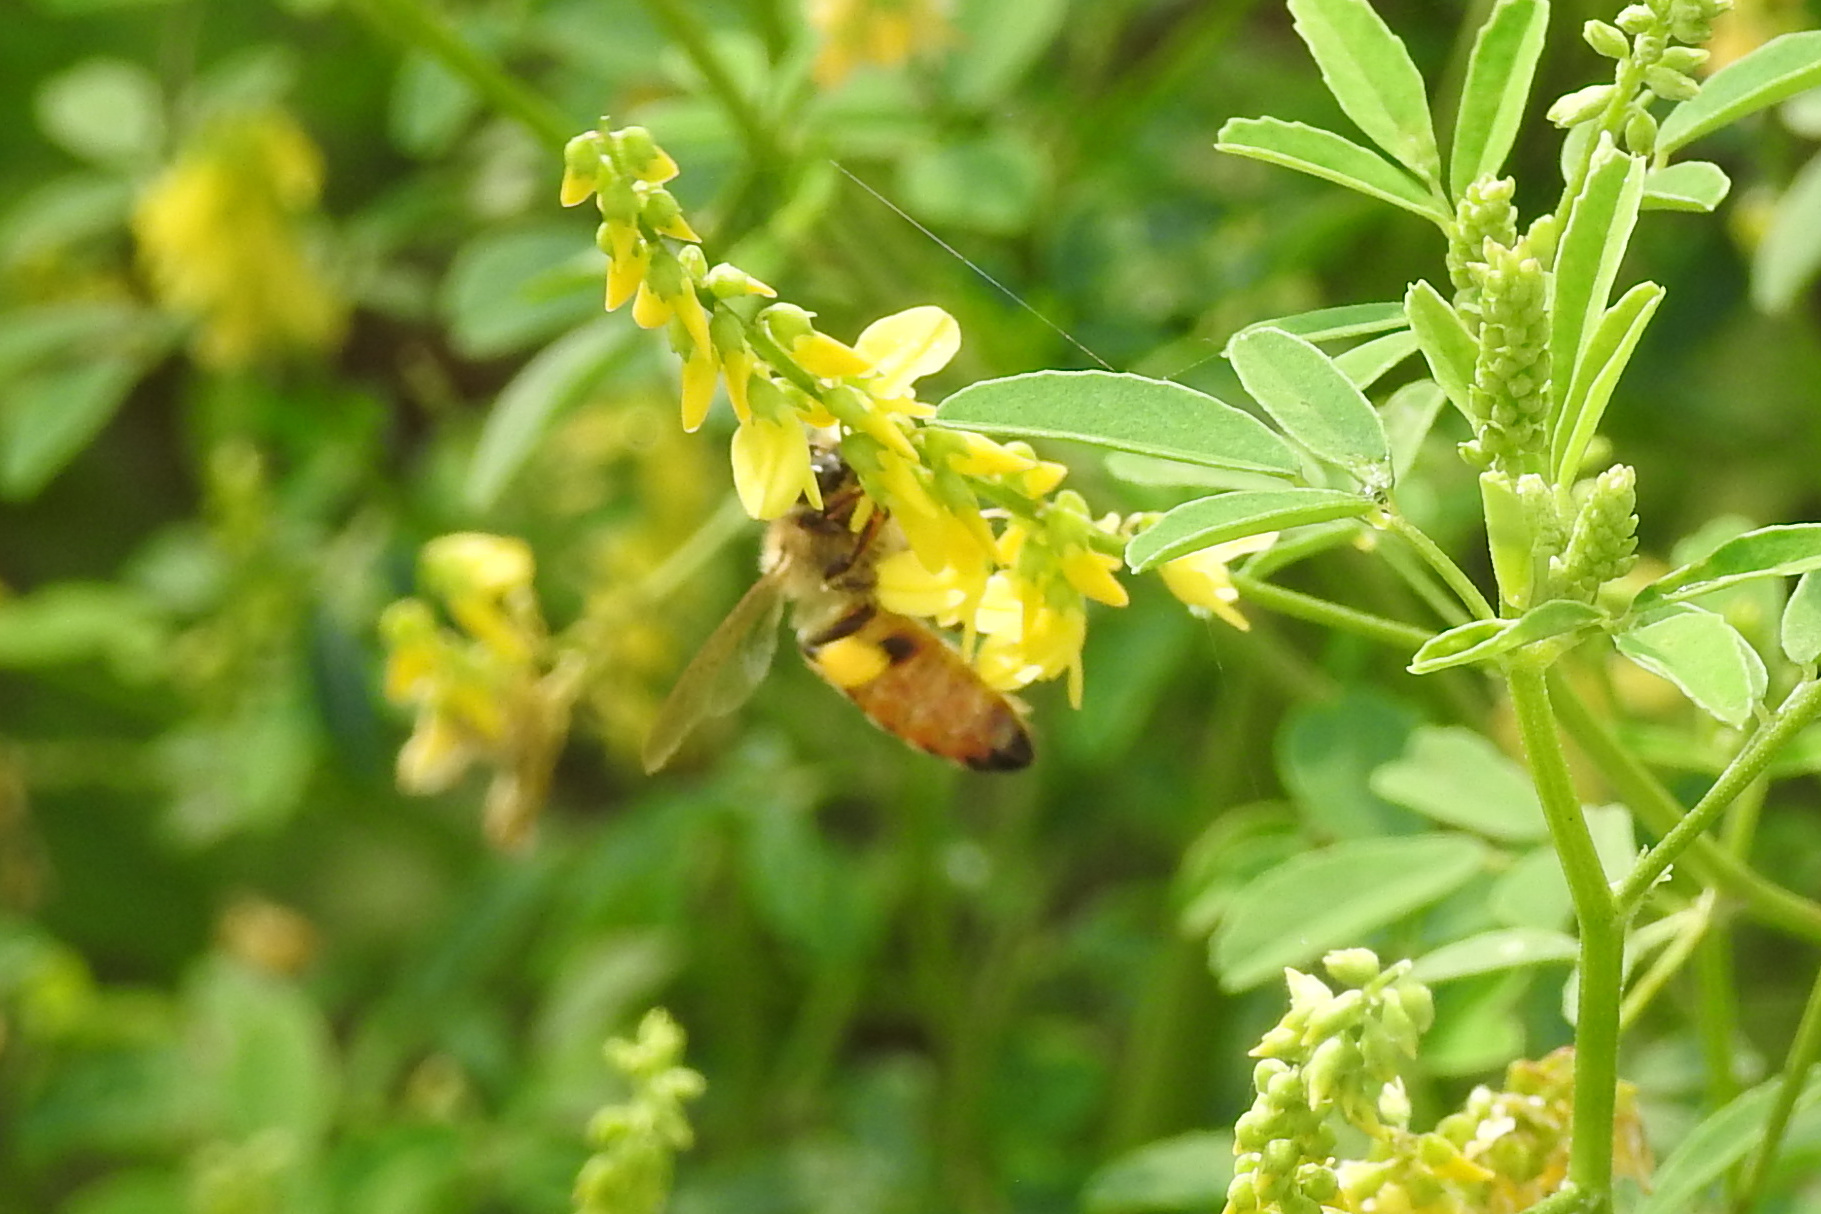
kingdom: Animalia
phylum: Arthropoda
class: Insecta
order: Hymenoptera
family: Apidae
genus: Apis
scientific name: Apis mellifera
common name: Honey bee
